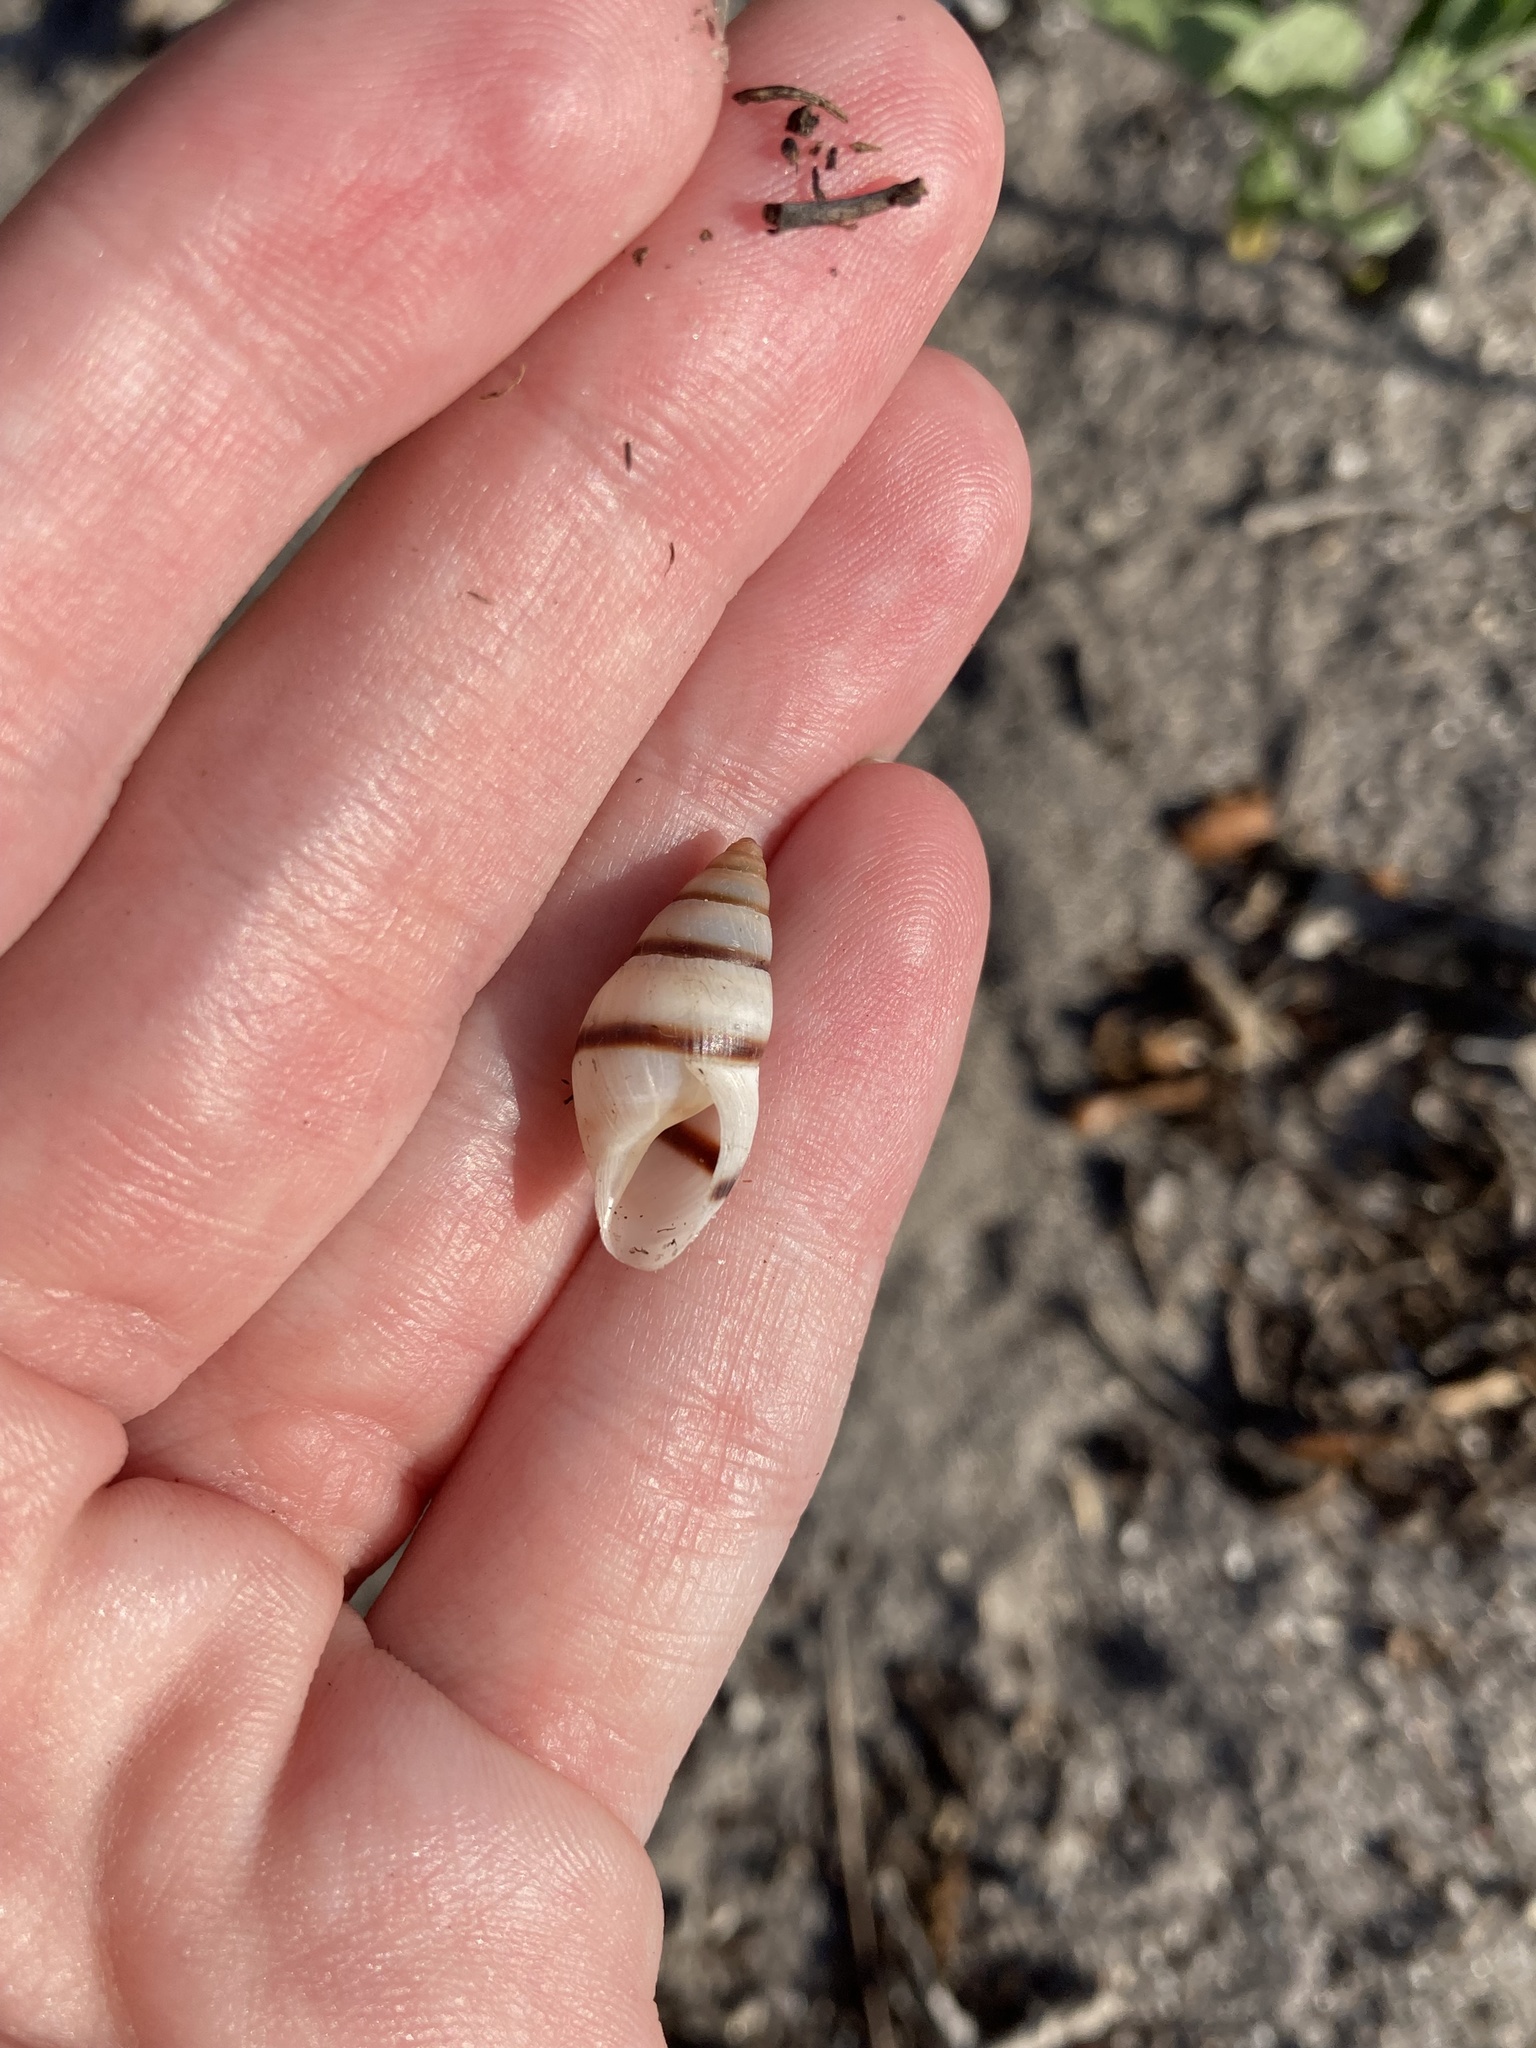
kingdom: Animalia
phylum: Mollusca
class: Gastropoda
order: Stylommatophora
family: Bulimulidae
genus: Bulimulus
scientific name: Bulimulus guadalupensis
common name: West indian bulimulus
